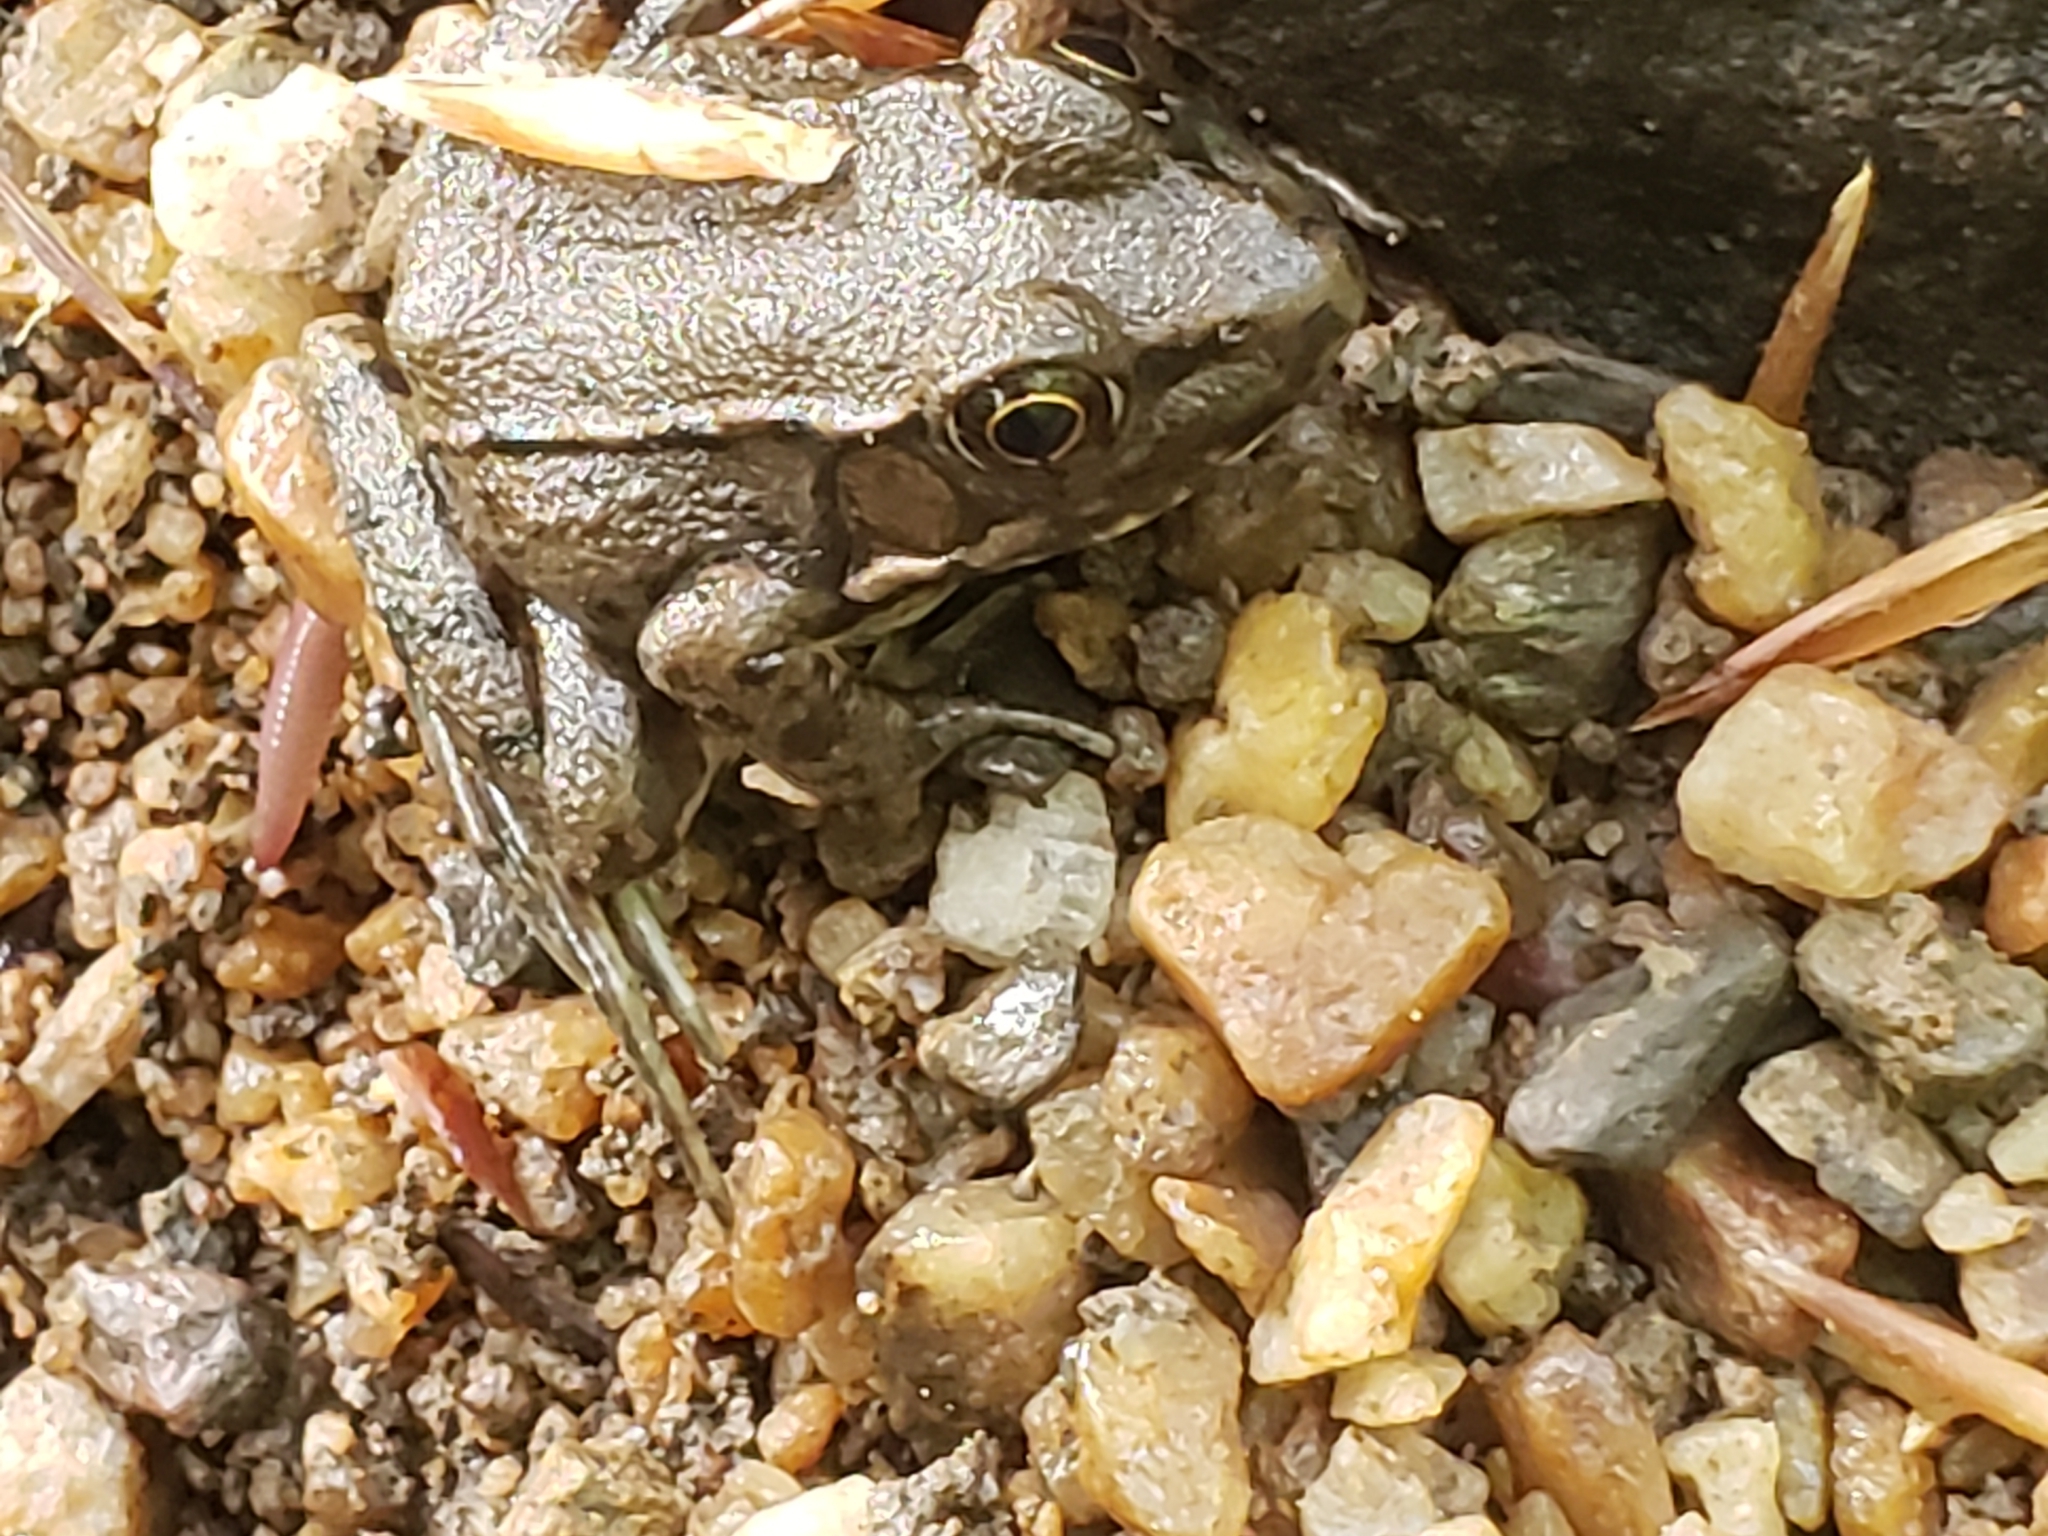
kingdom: Animalia
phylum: Chordata
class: Amphibia
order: Anura
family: Ranidae
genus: Lithobates
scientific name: Lithobates clamitans
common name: Green frog
